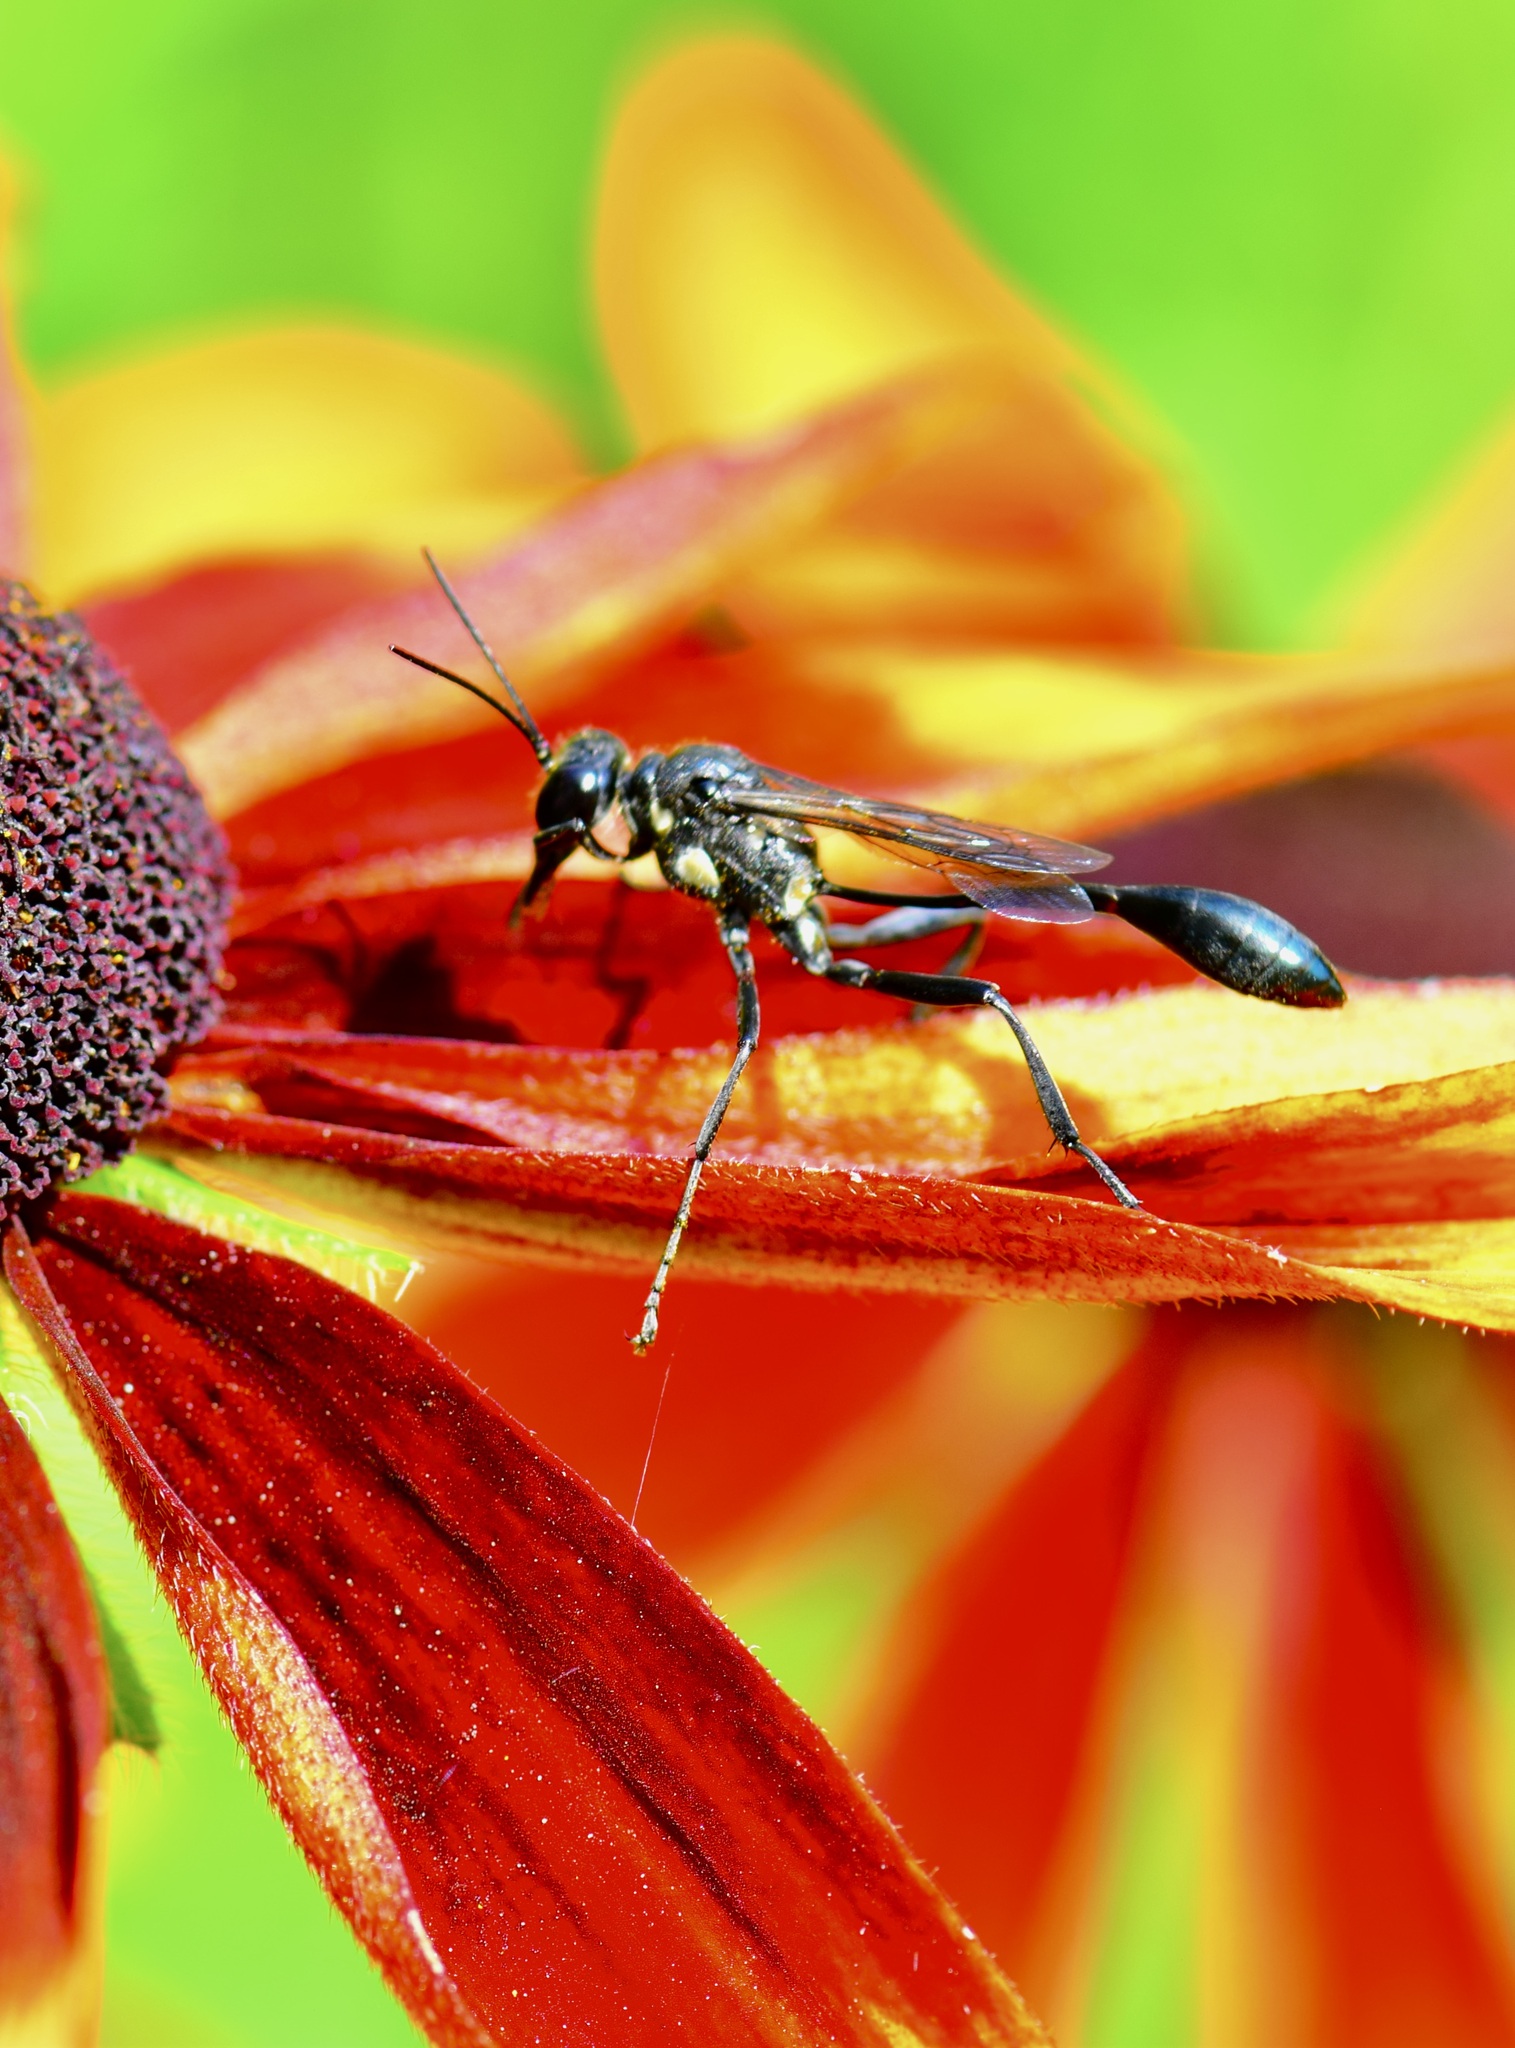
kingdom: Animalia
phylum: Arthropoda
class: Insecta
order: Hymenoptera
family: Sphecidae
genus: Eremnophila
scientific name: Eremnophila aureonotata
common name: Gold-marked thread-waisted wasp
